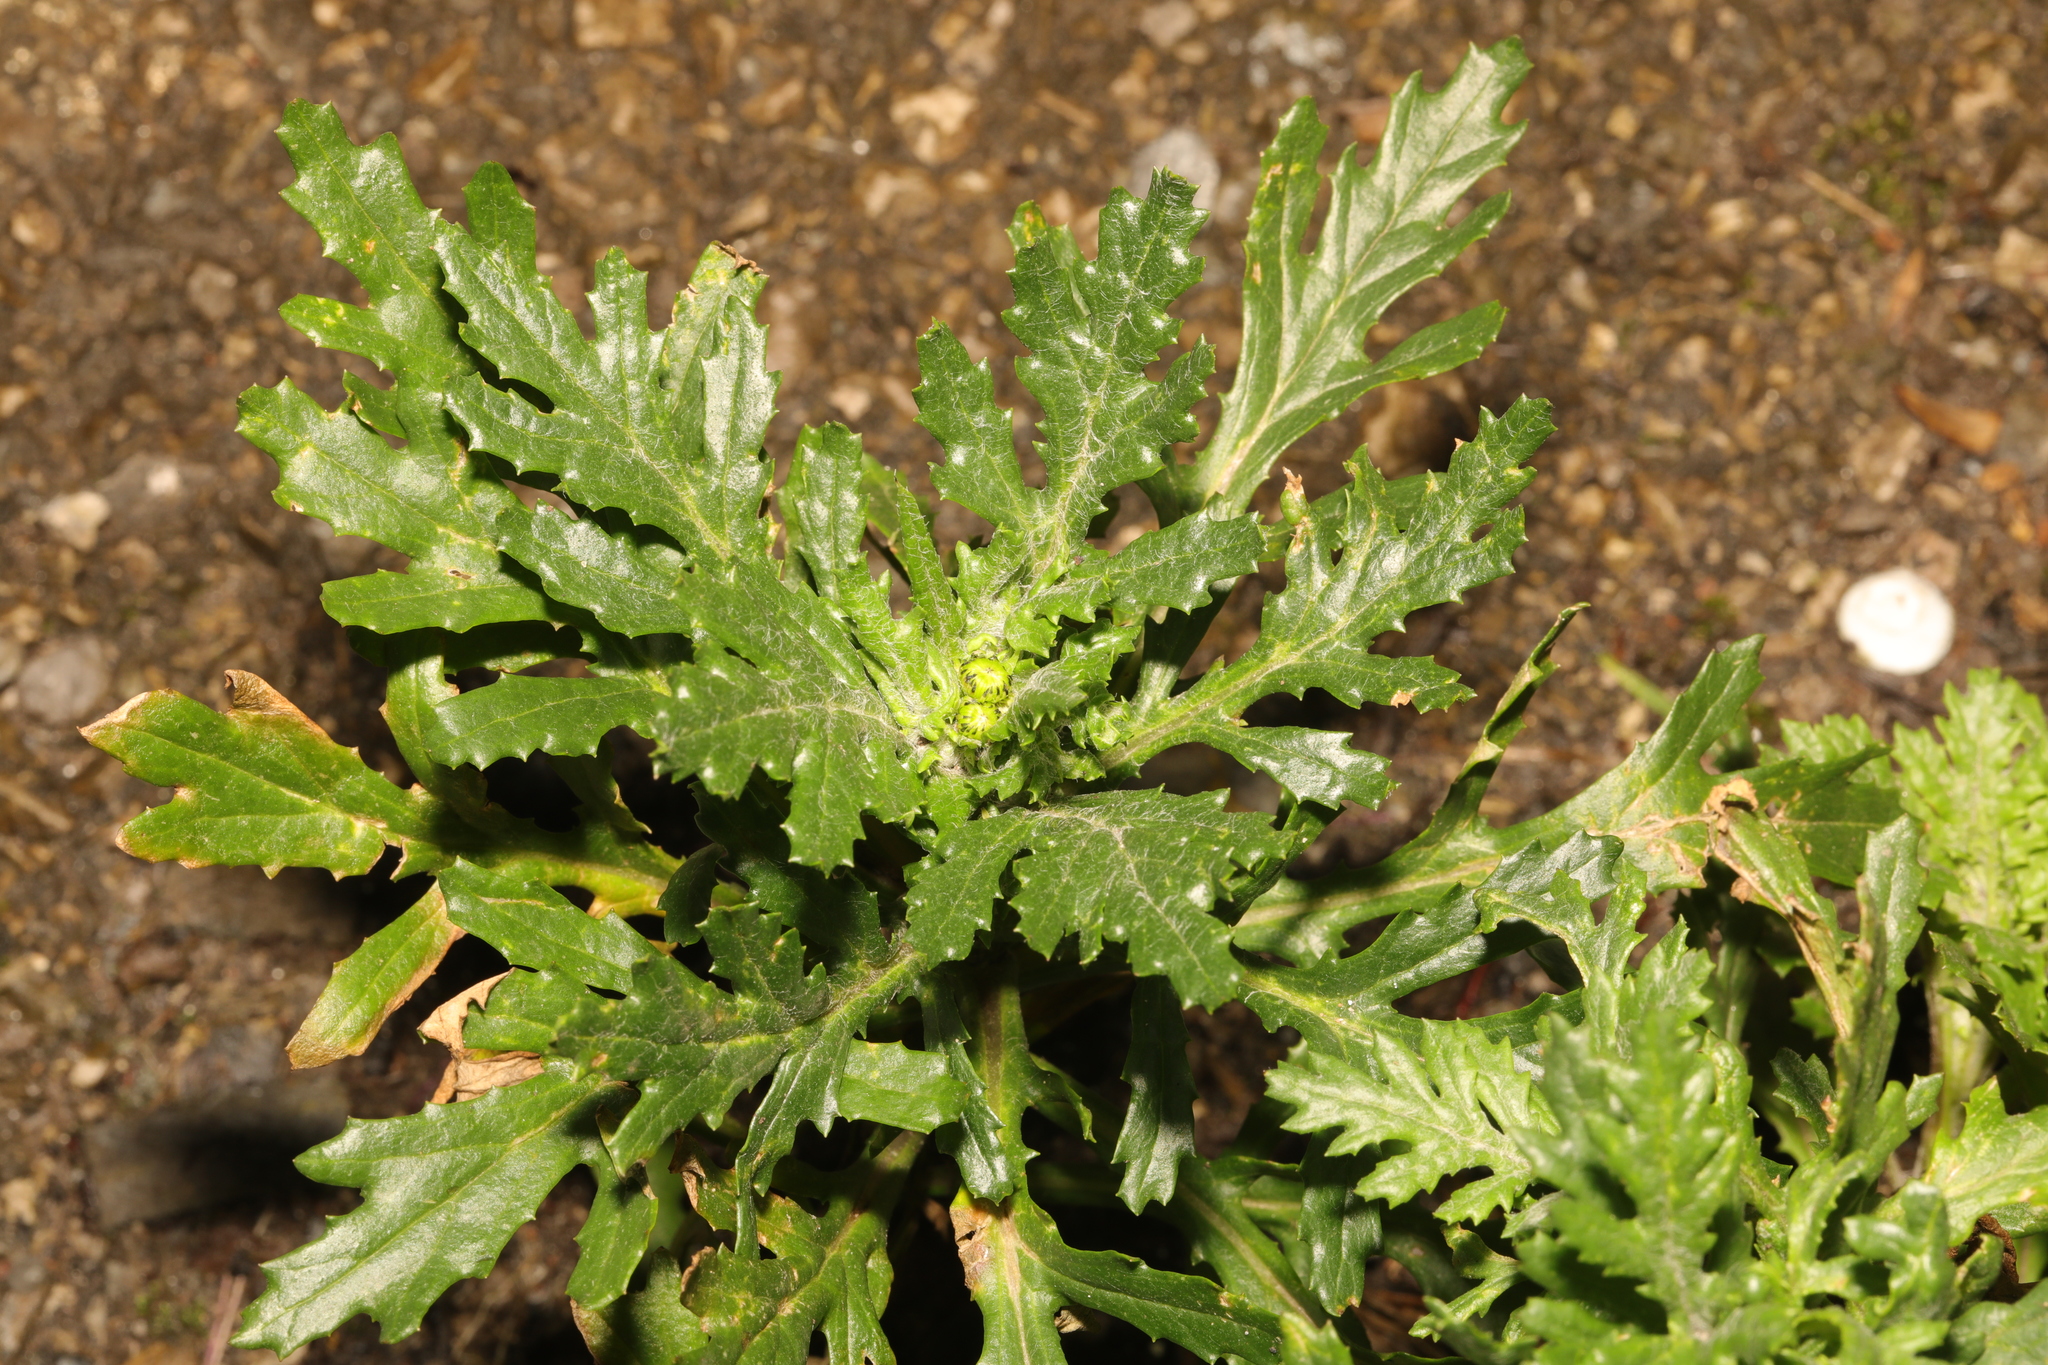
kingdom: Plantae
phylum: Tracheophyta
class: Magnoliopsida
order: Asterales
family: Asteraceae
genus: Senecio
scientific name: Senecio vulgaris
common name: Old-man-in-the-spring
